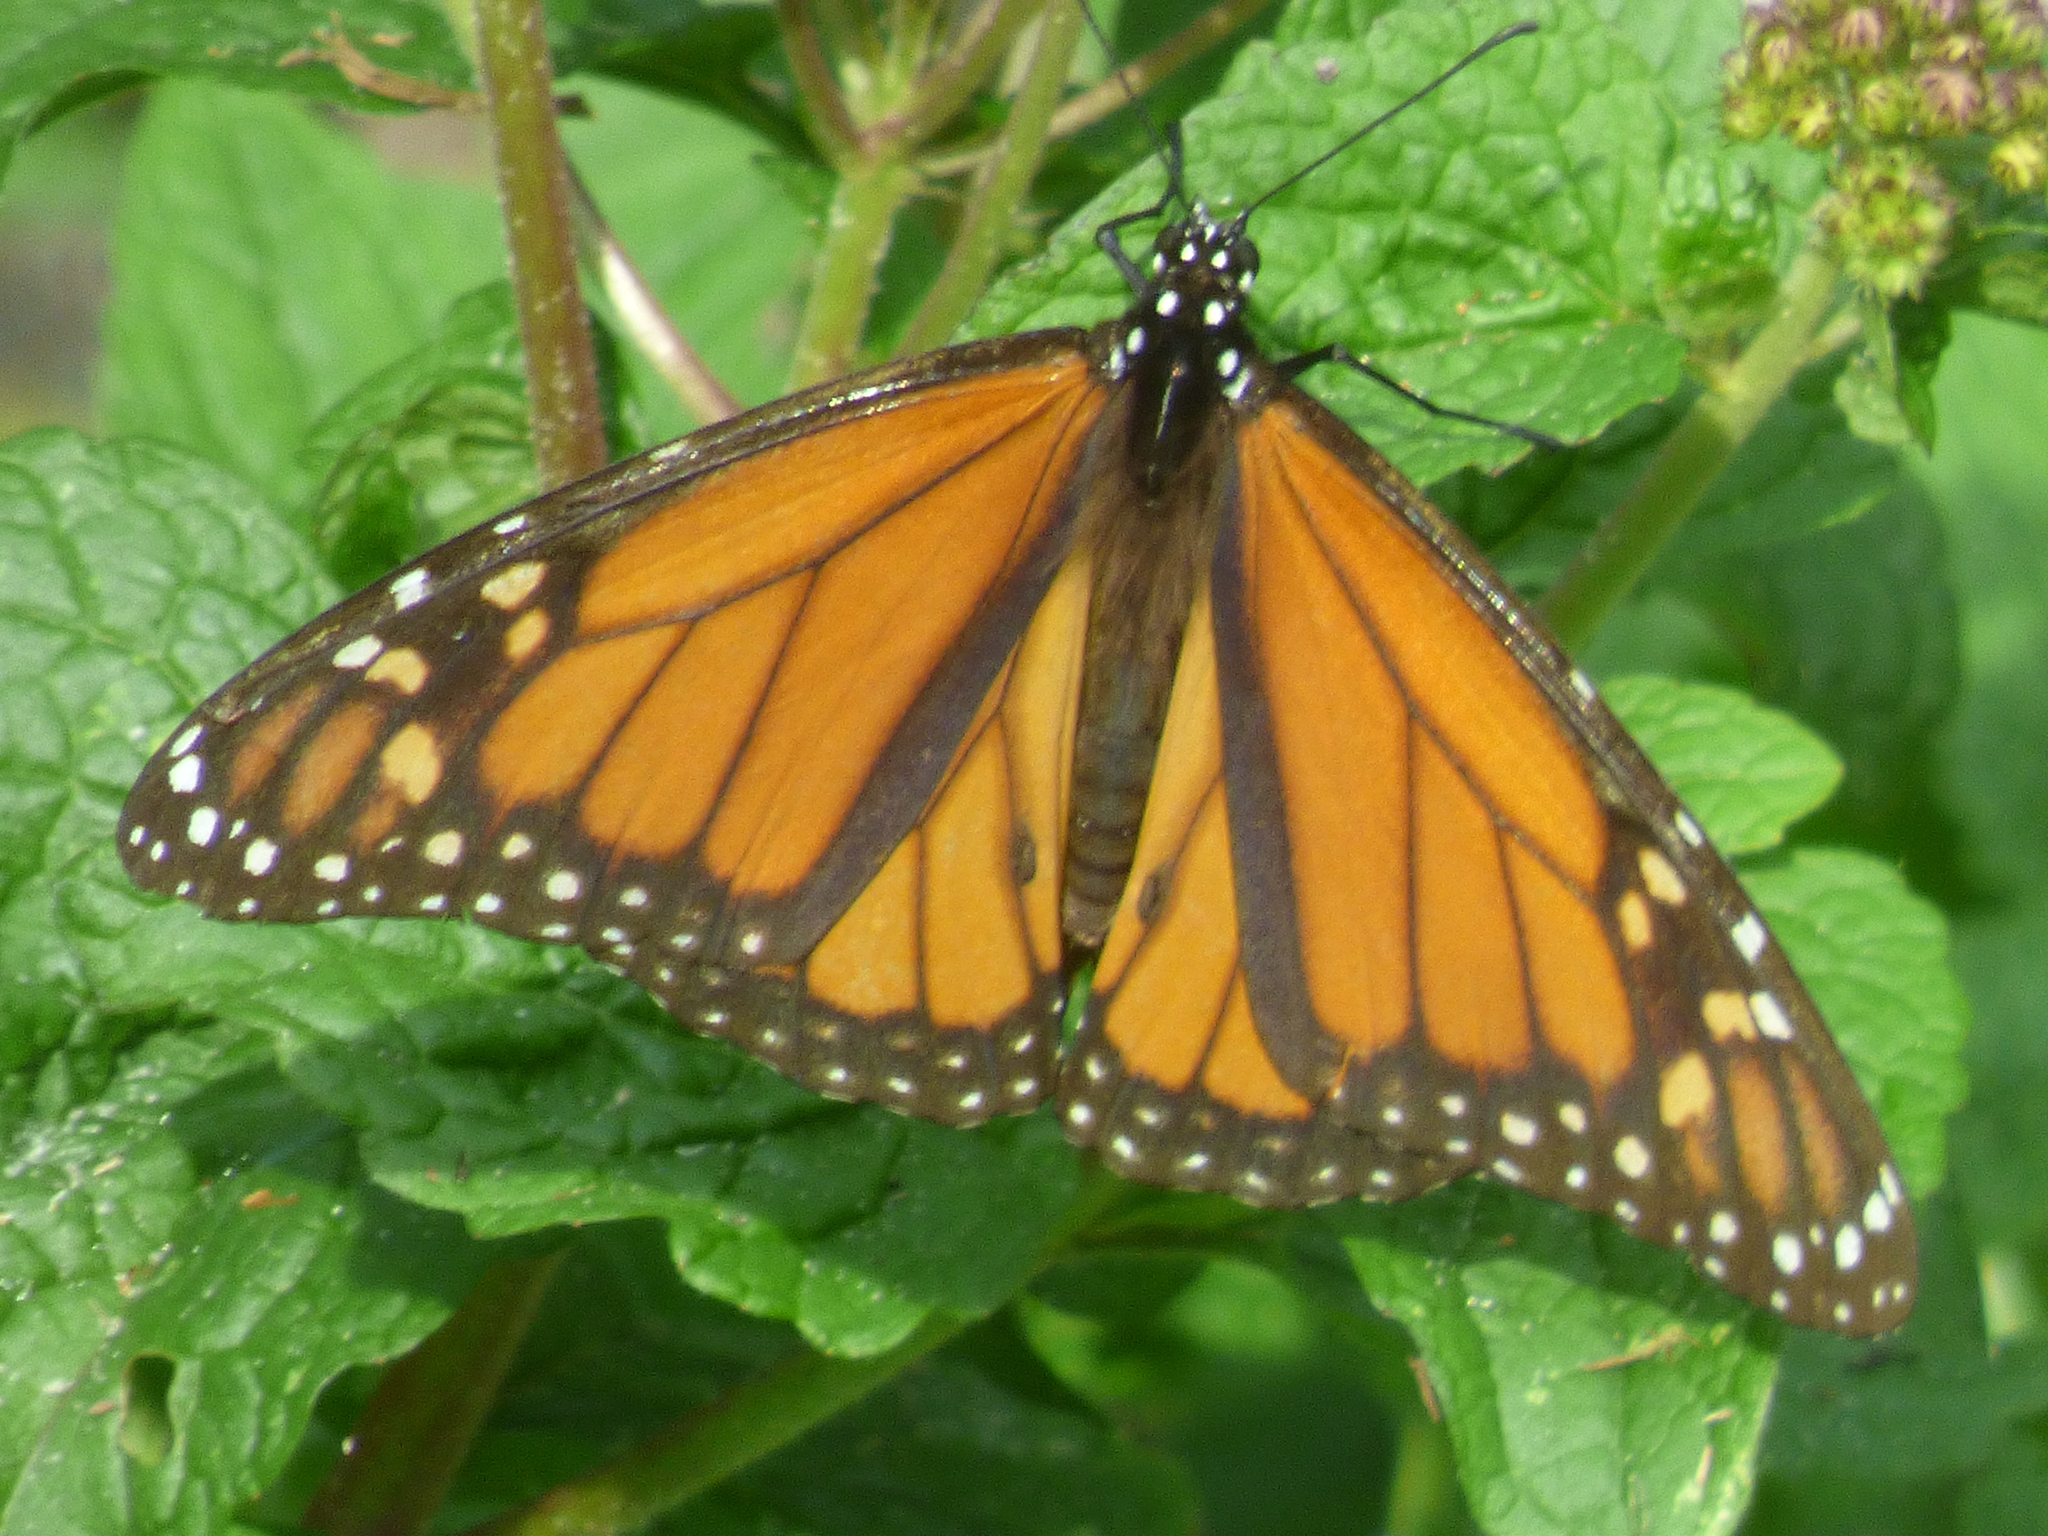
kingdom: Animalia
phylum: Arthropoda
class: Insecta
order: Lepidoptera
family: Nymphalidae
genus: Danaus
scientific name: Danaus plexippus
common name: Monarch
